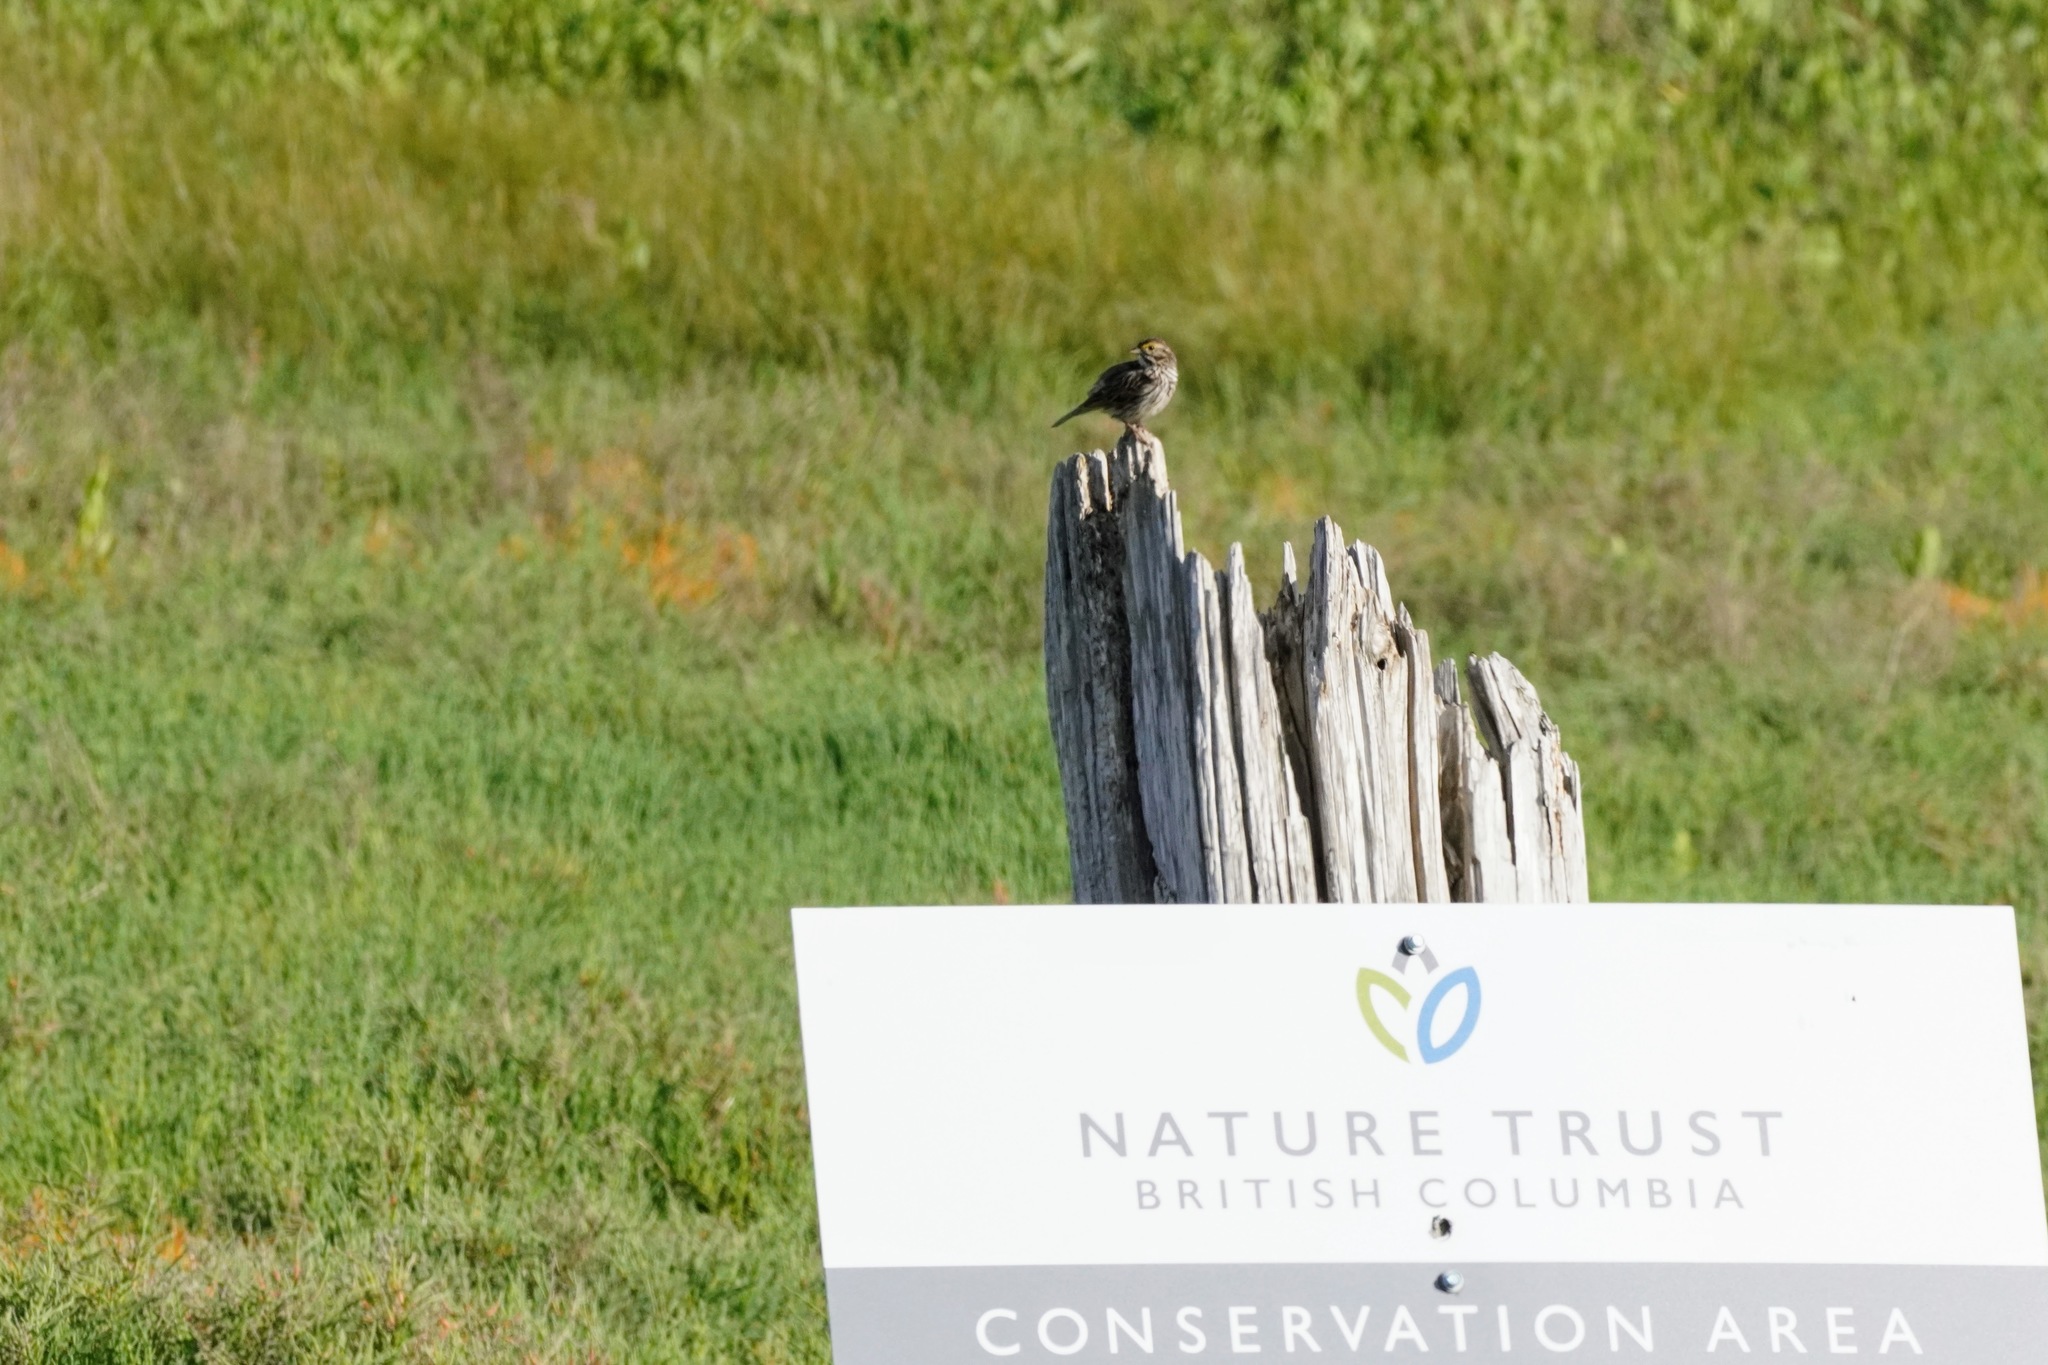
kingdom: Animalia
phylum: Chordata
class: Aves
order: Passeriformes
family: Passerellidae
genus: Passerculus
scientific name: Passerculus sandwichensis
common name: Savannah sparrow
